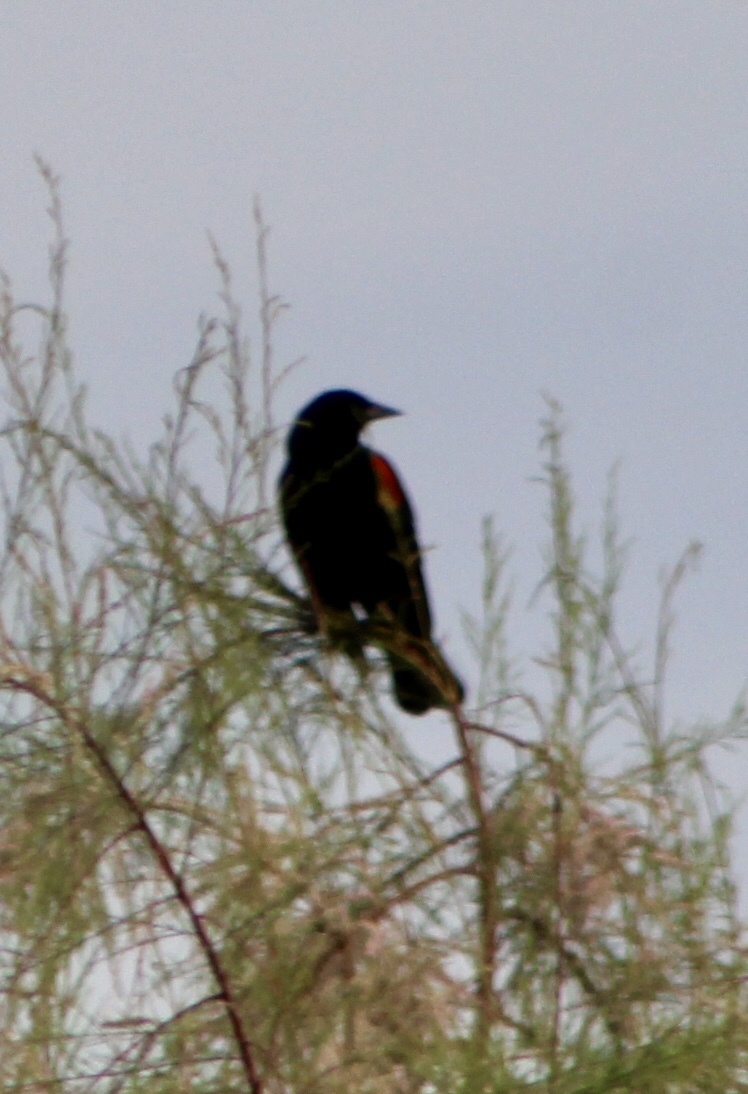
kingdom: Animalia
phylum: Chordata
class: Aves
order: Passeriformes
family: Icteridae
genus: Agelaius
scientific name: Agelaius phoeniceus
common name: Red-winged blackbird
